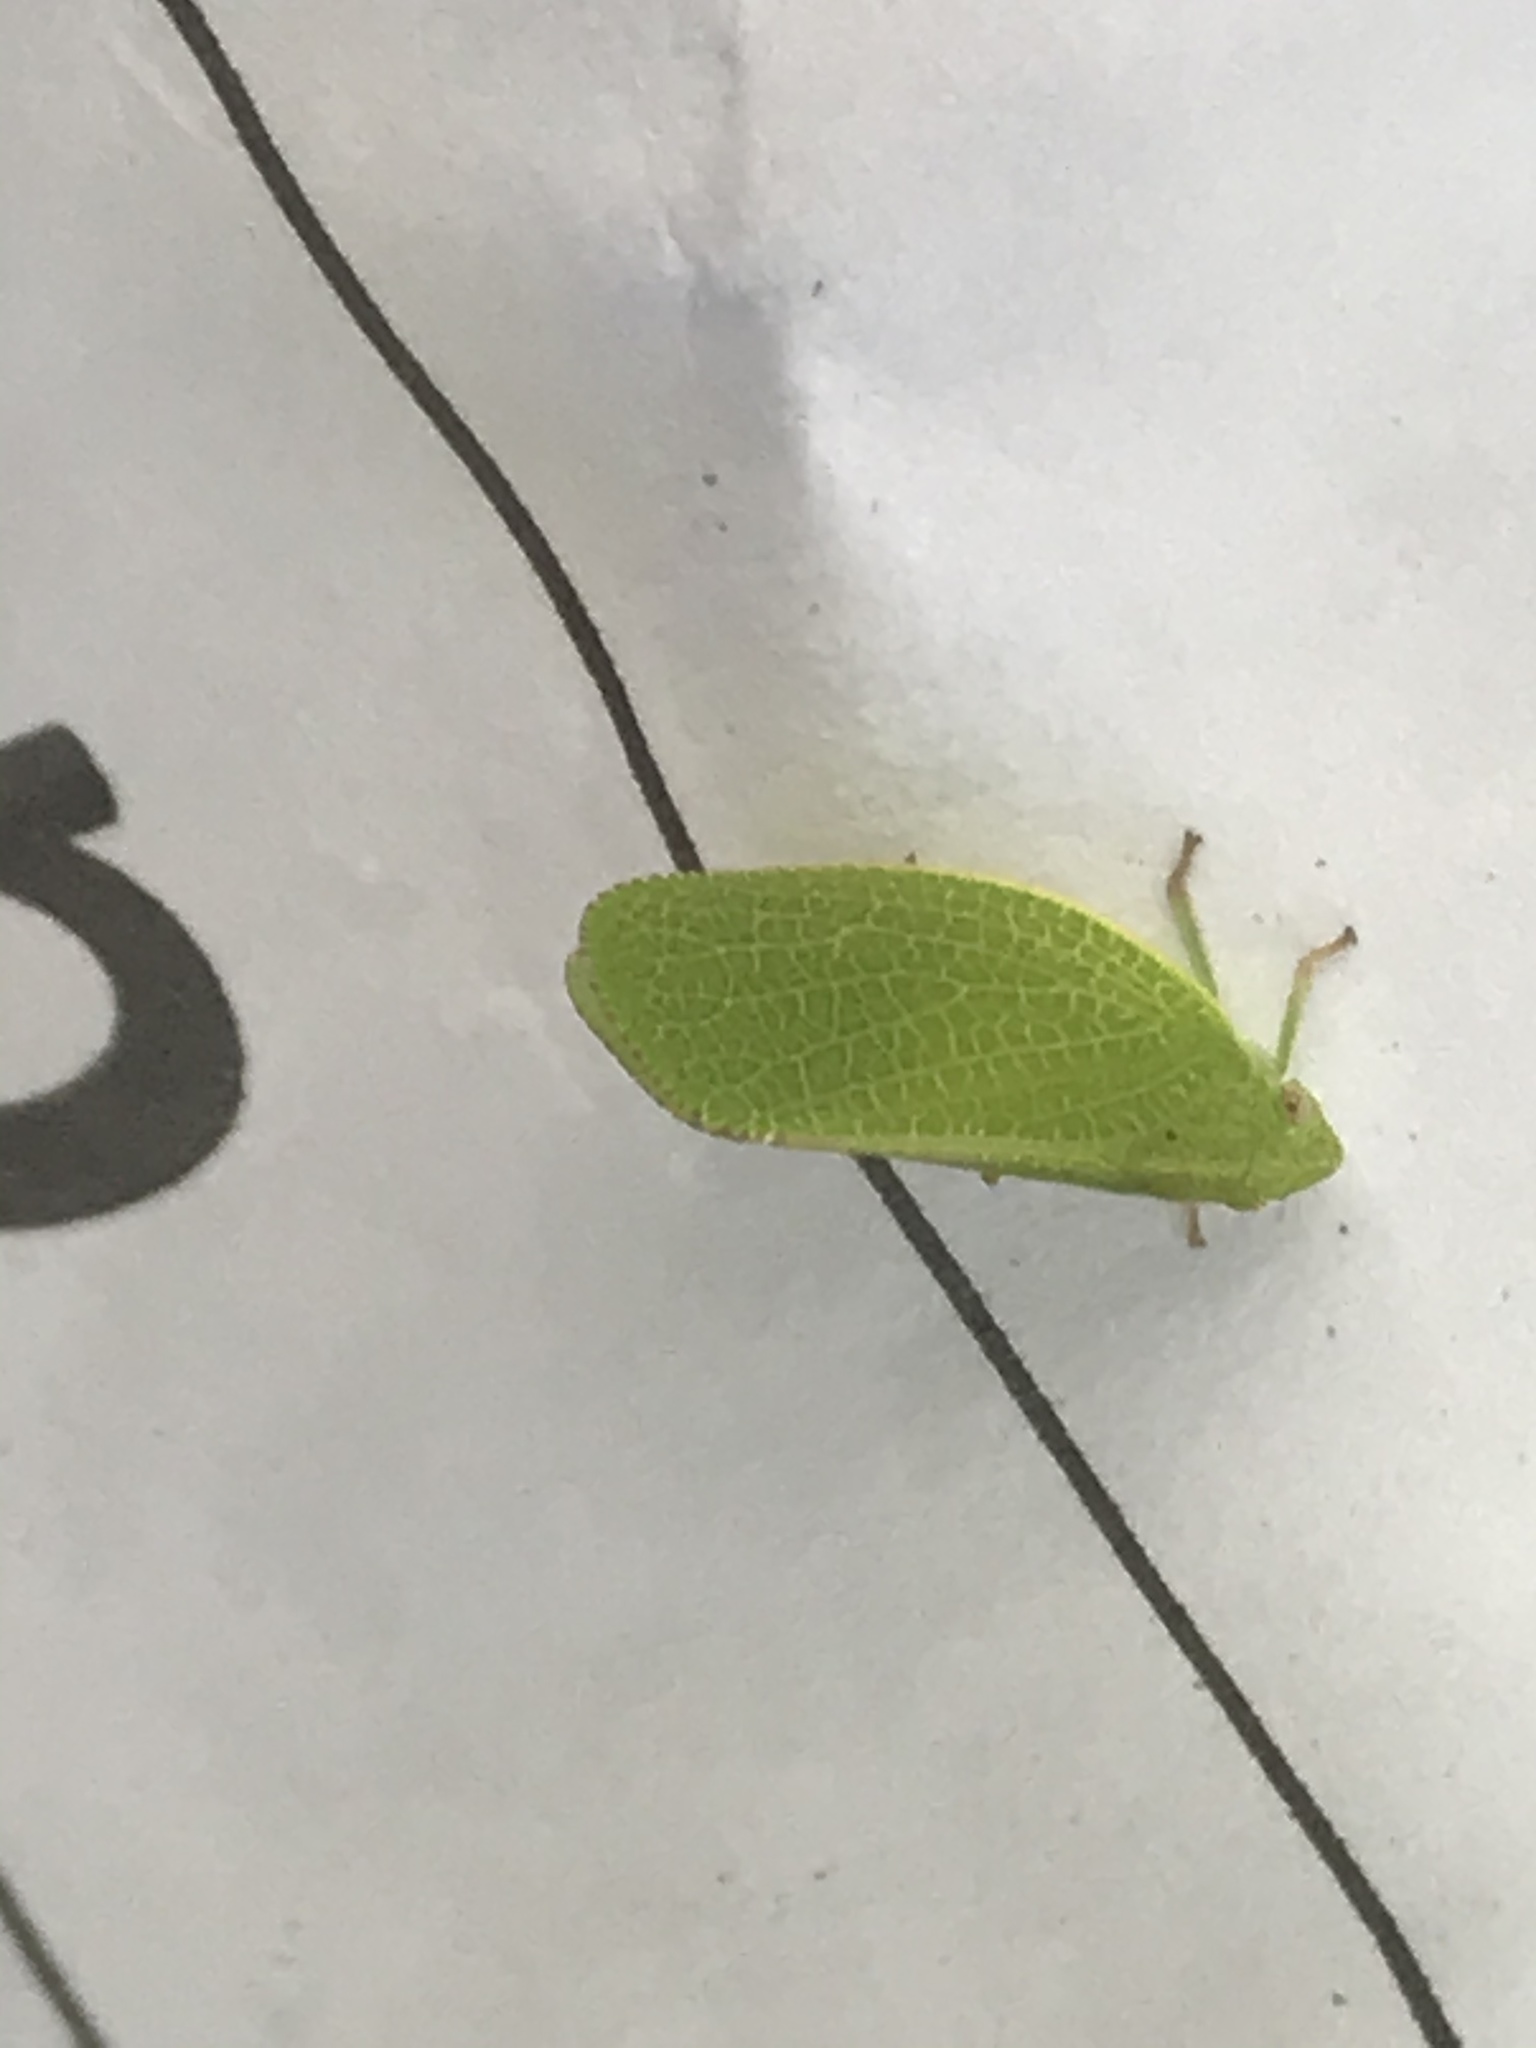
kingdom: Animalia
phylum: Arthropoda
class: Insecta
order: Hemiptera
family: Acanaloniidae
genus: Acanalonia
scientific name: Acanalonia conica
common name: Green cone-headed planthopper
